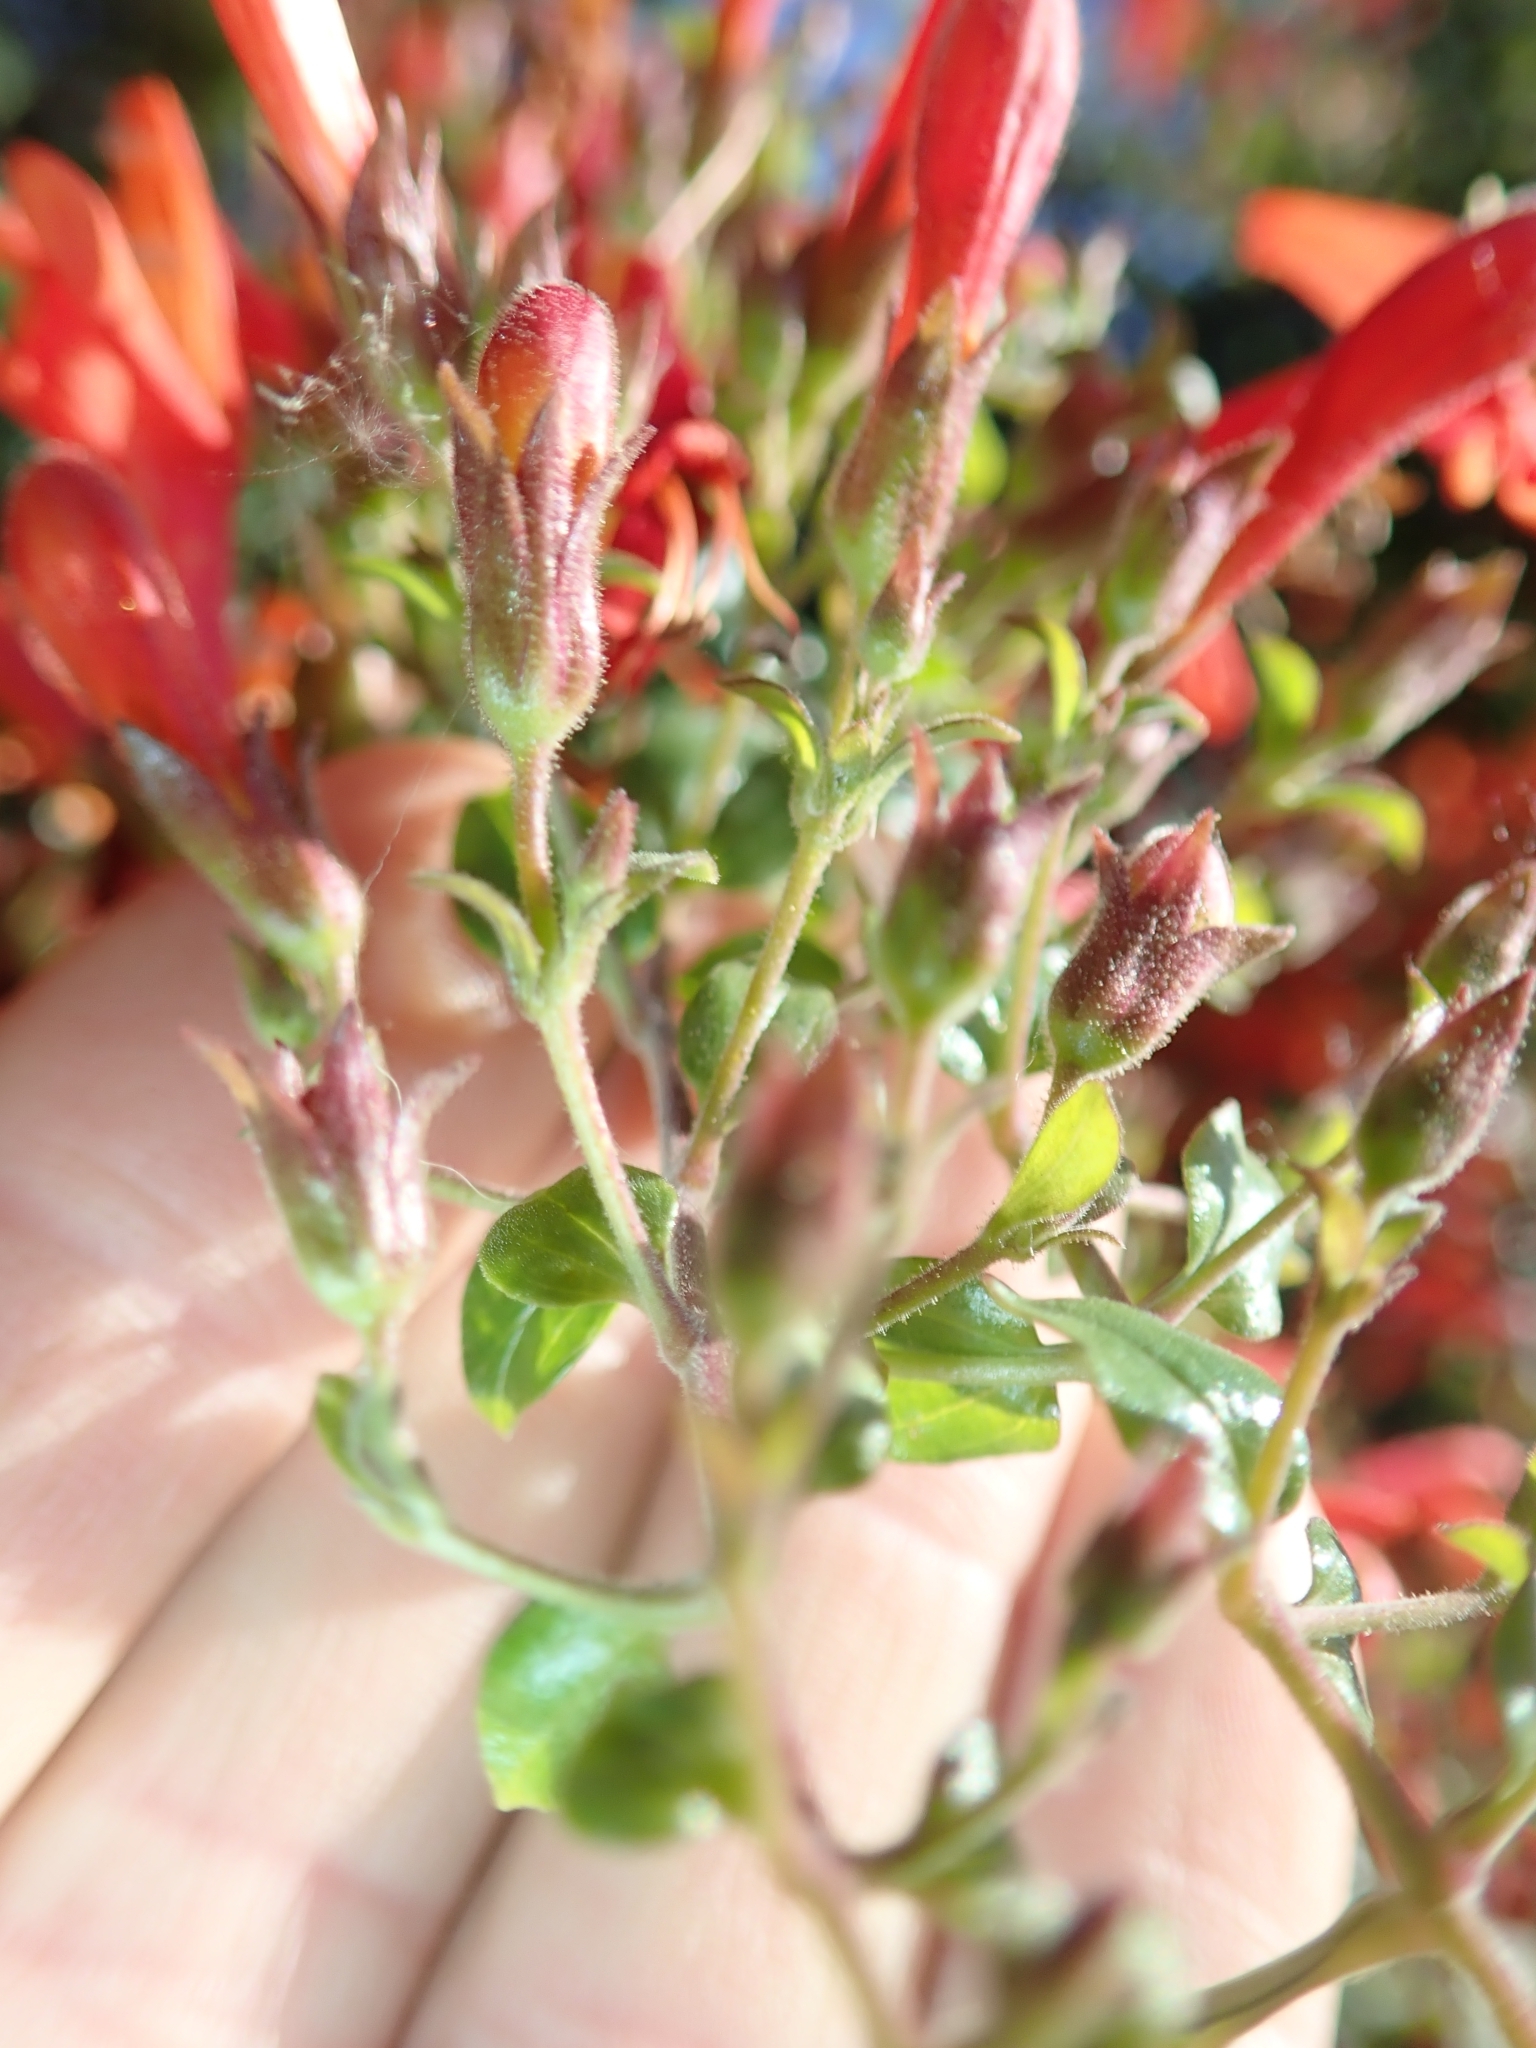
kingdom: Plantae
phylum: Tracheophyta
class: Magnoliopsida
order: Lamiales
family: Plantaginaceae
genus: Keckiella
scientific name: Keckiella cordifolia
